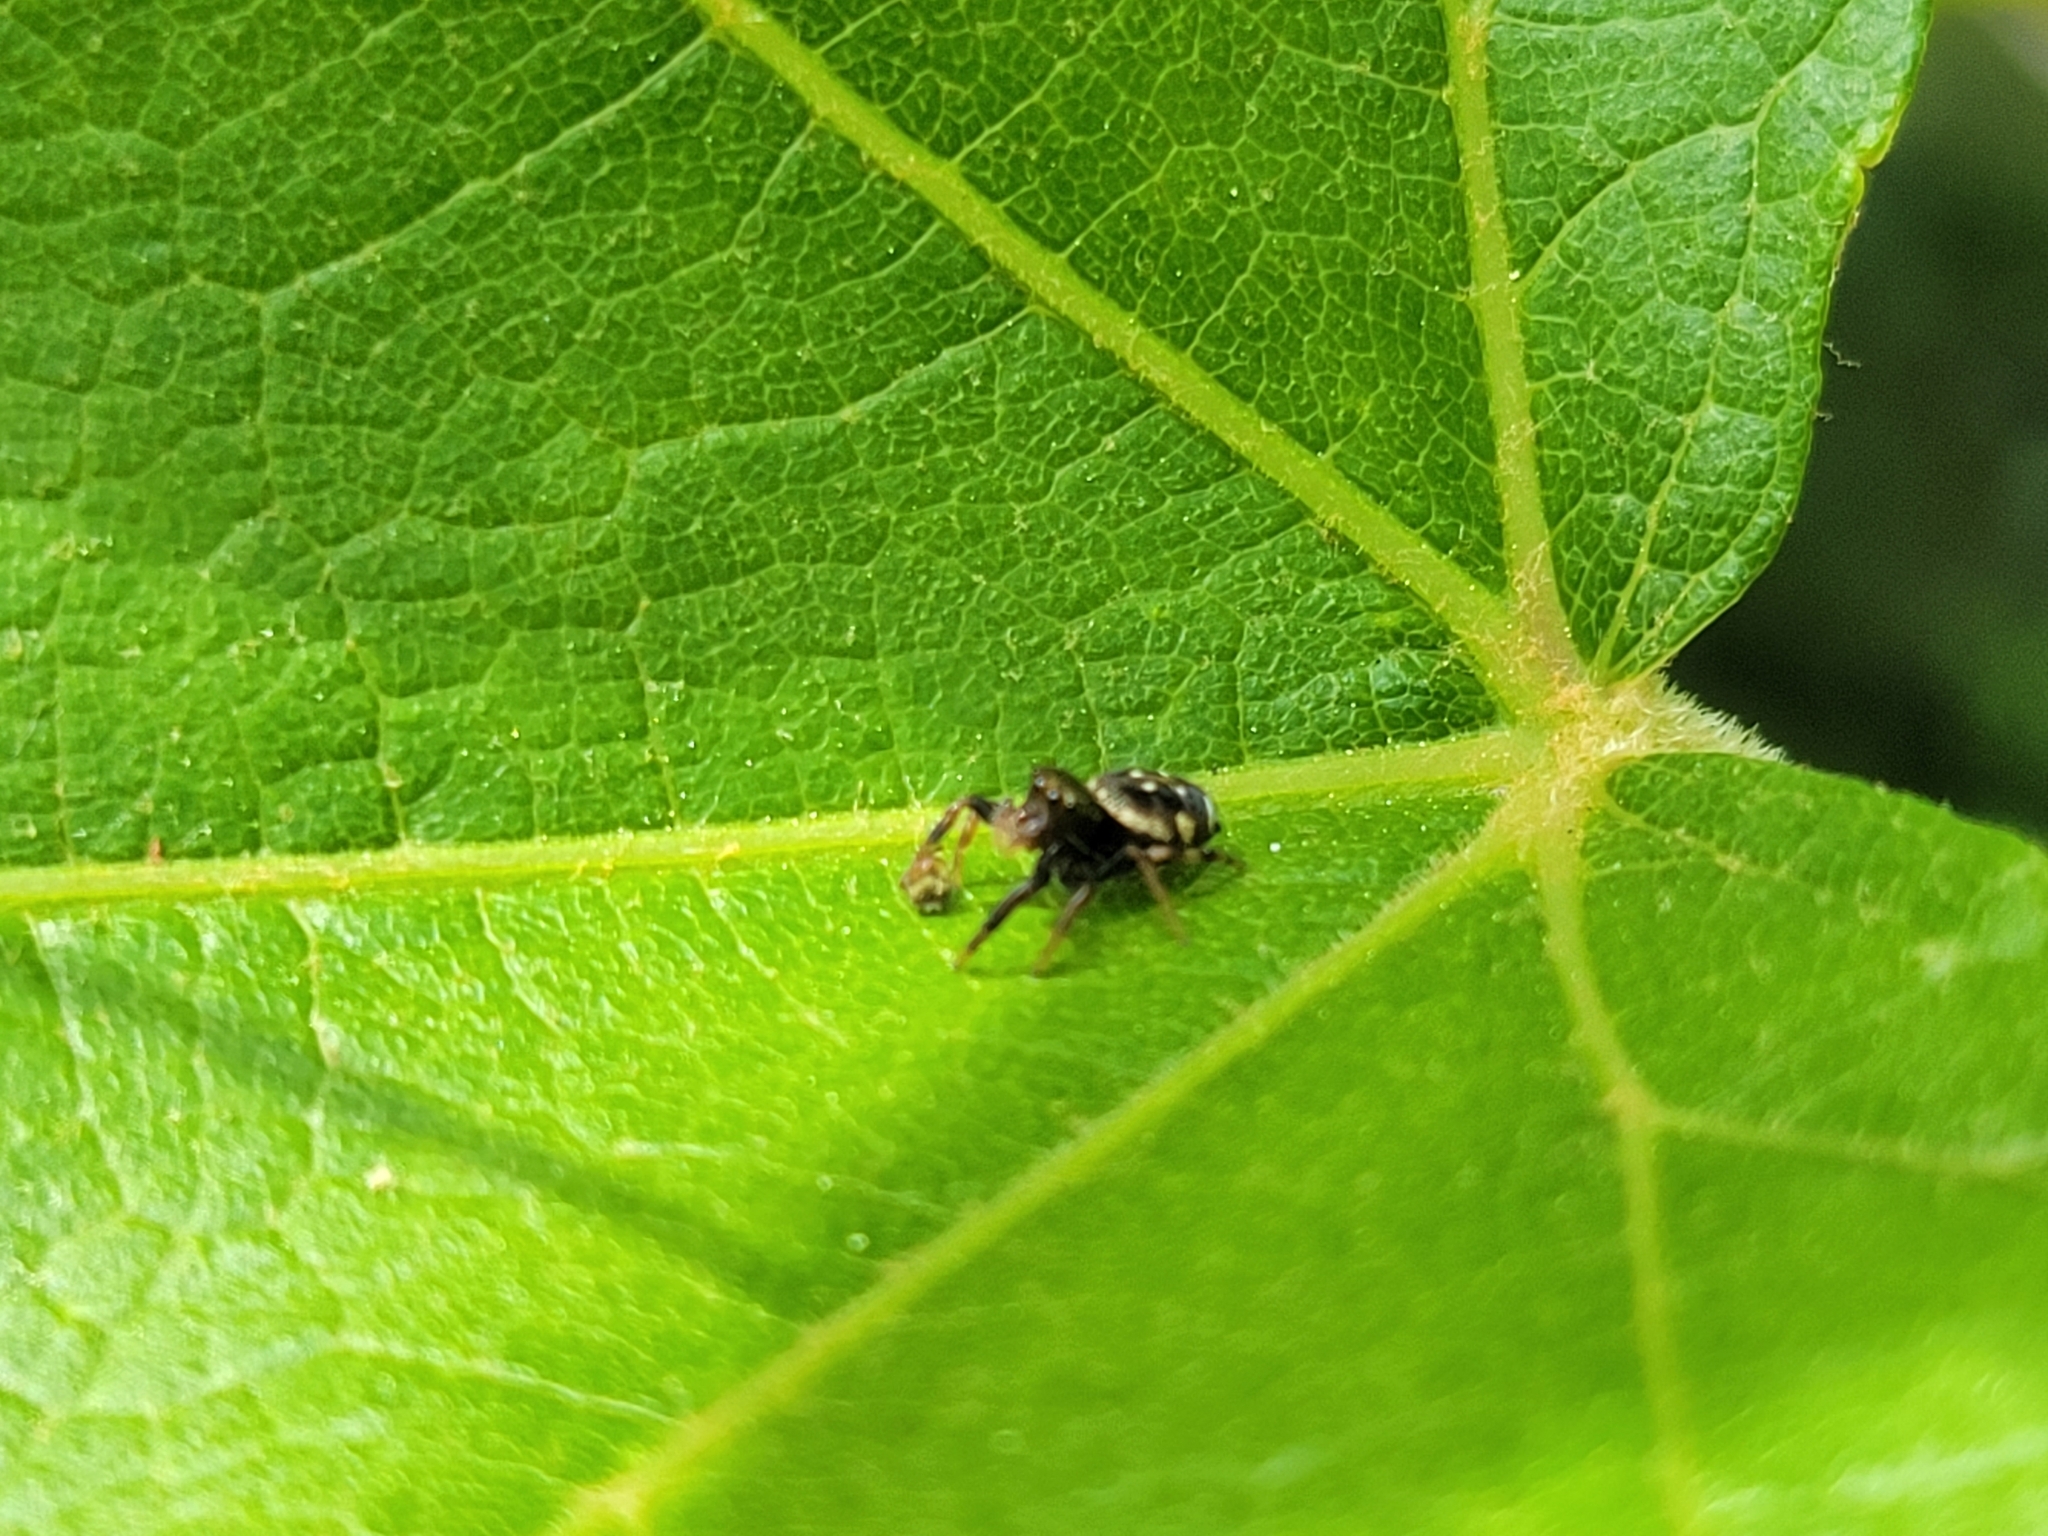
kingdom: Animalia
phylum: Arthropoda
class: Arachnida
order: Araneae
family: Salticidae
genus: Paraphidippus
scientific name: Paraphidippus aurantius
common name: Jumping spiders
